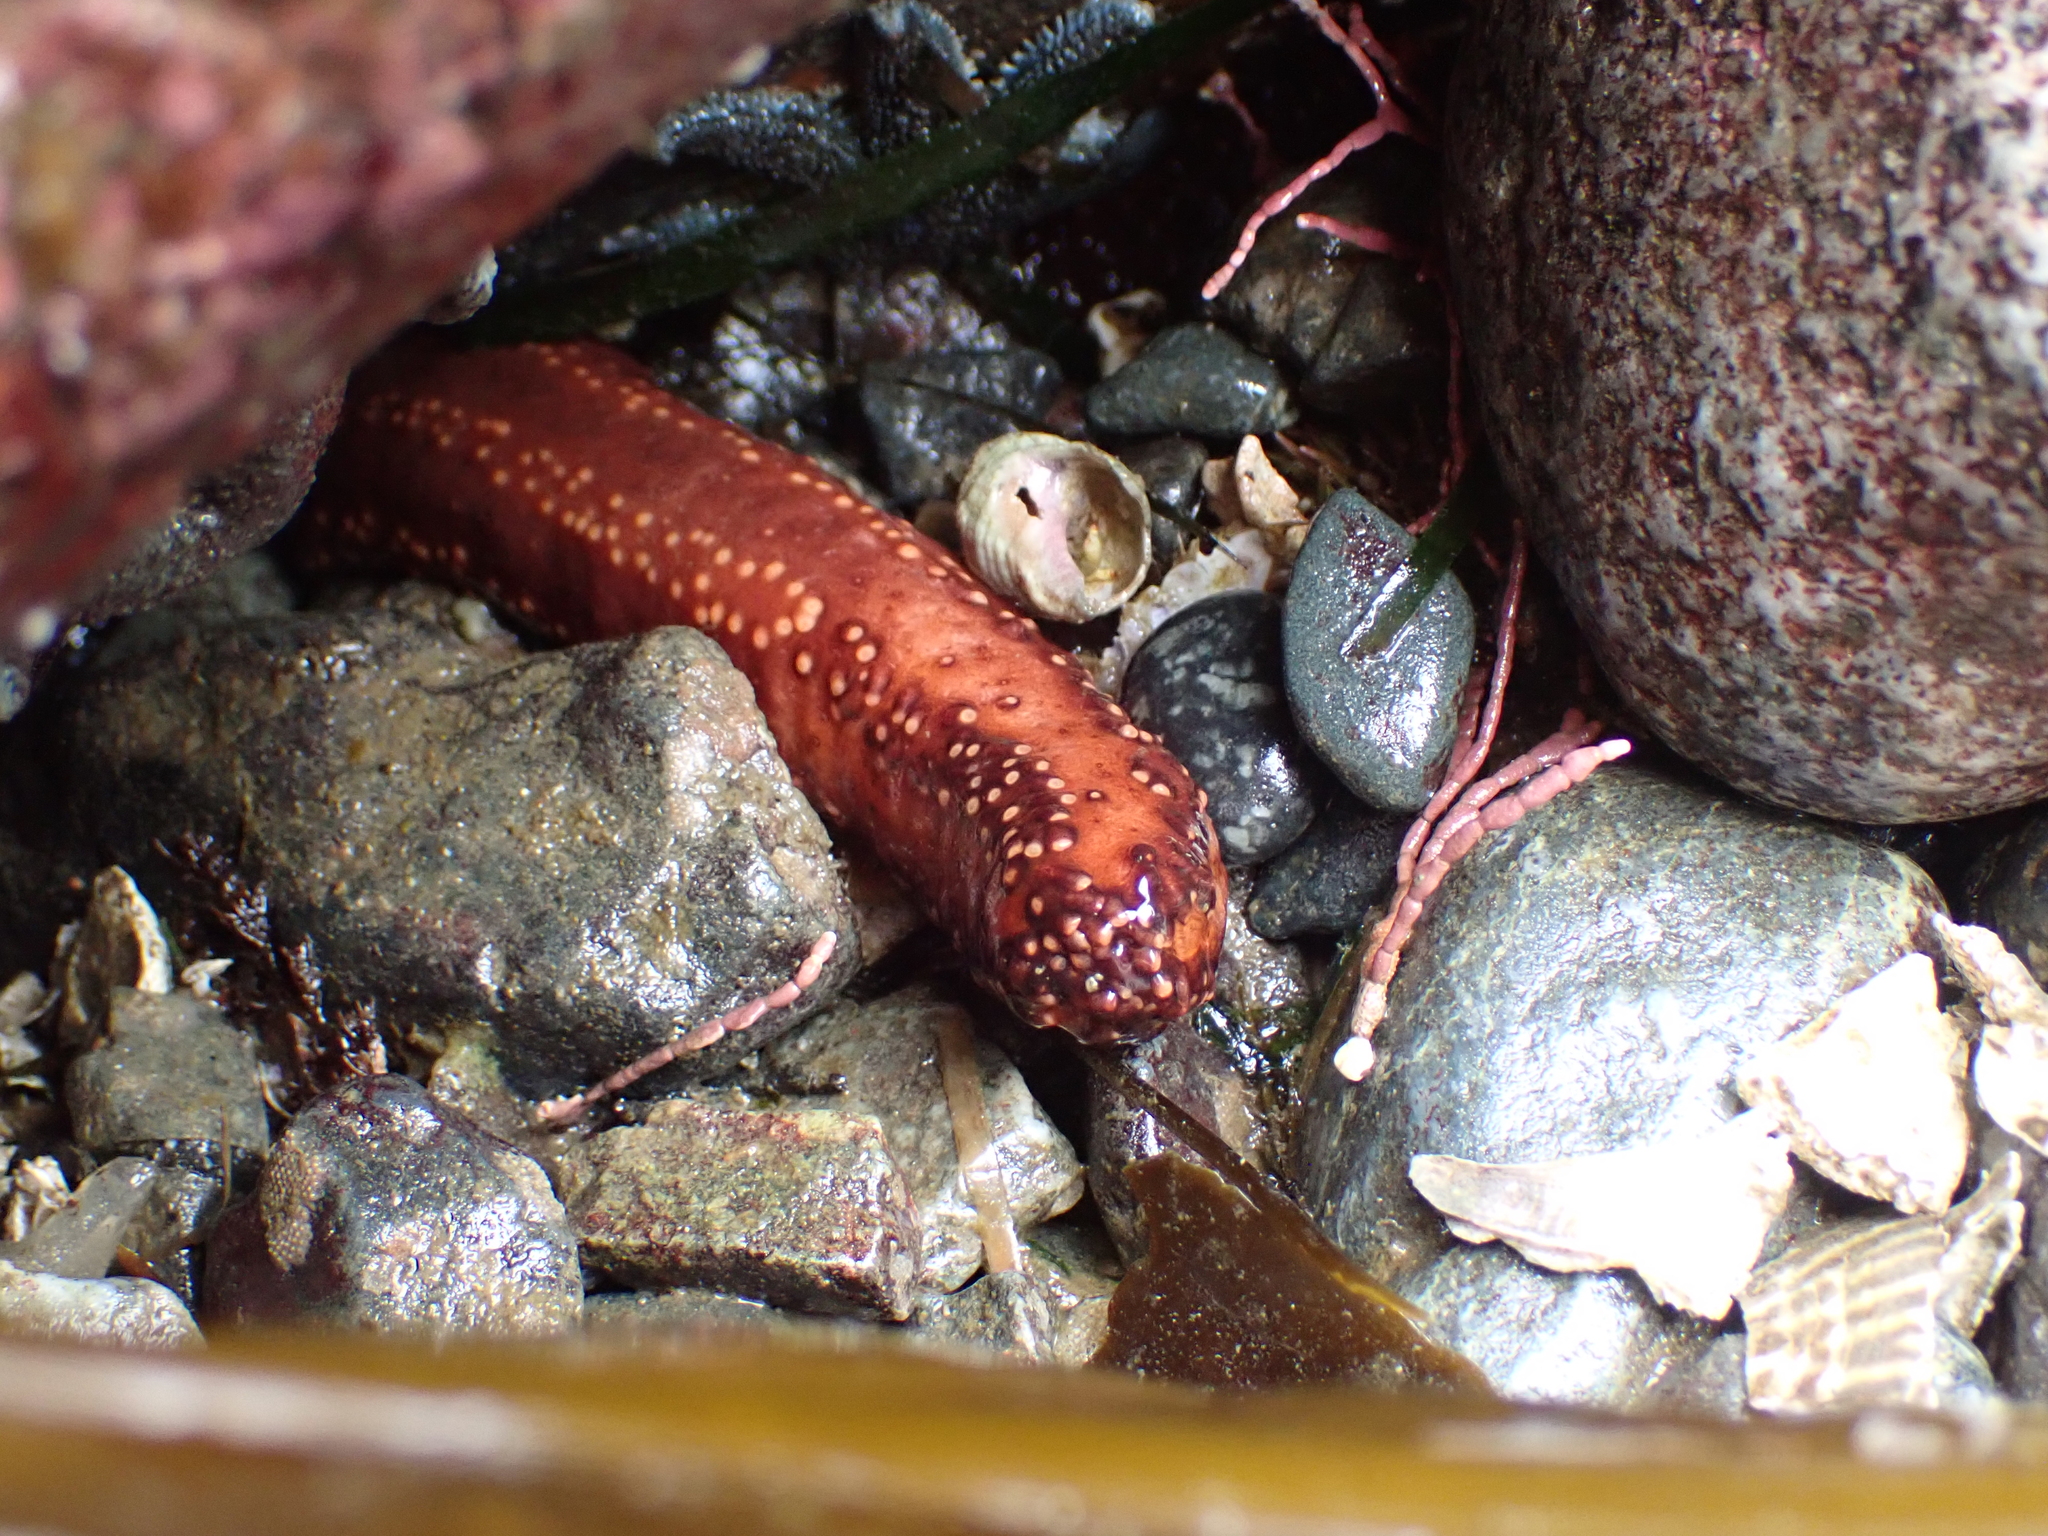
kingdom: Animalia
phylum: Echinodermata
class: Holothuroidea
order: Dendrochirotida
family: Cucumariidae
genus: Cucumaria
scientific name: Cucumaria miniata
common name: Orange sea cucumber
